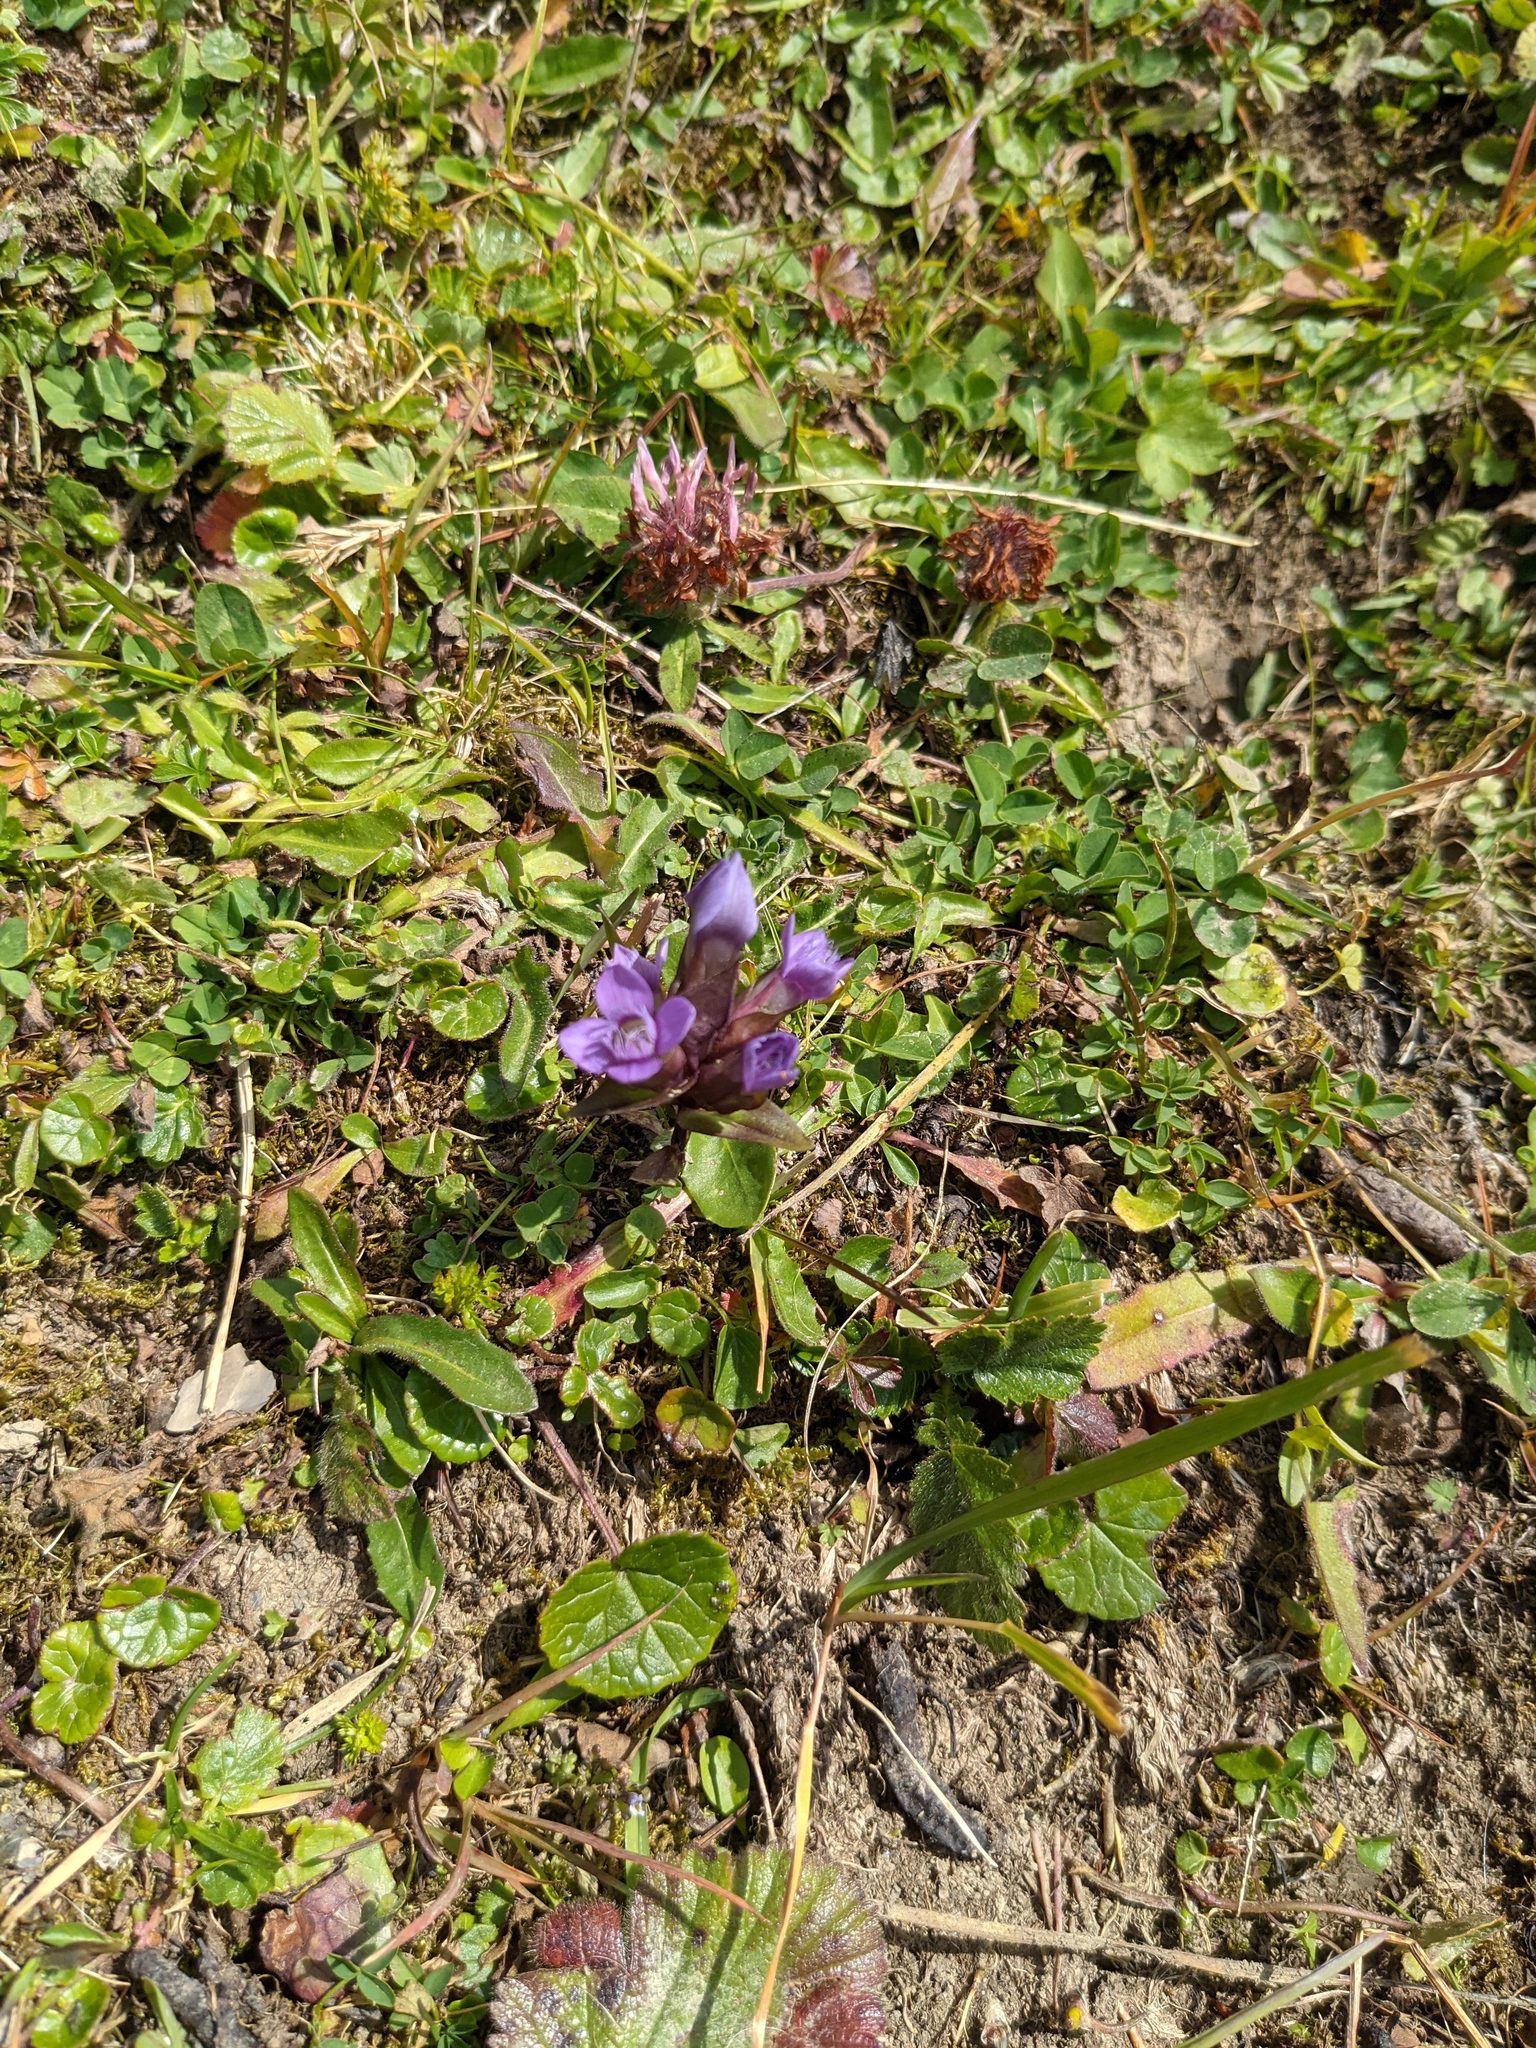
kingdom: Plantae
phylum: Tracheophyta
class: Magnoliopsida
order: Gentianales
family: Gentianaceae
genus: Gentianella
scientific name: Gentianella campestris
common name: Field gentian
